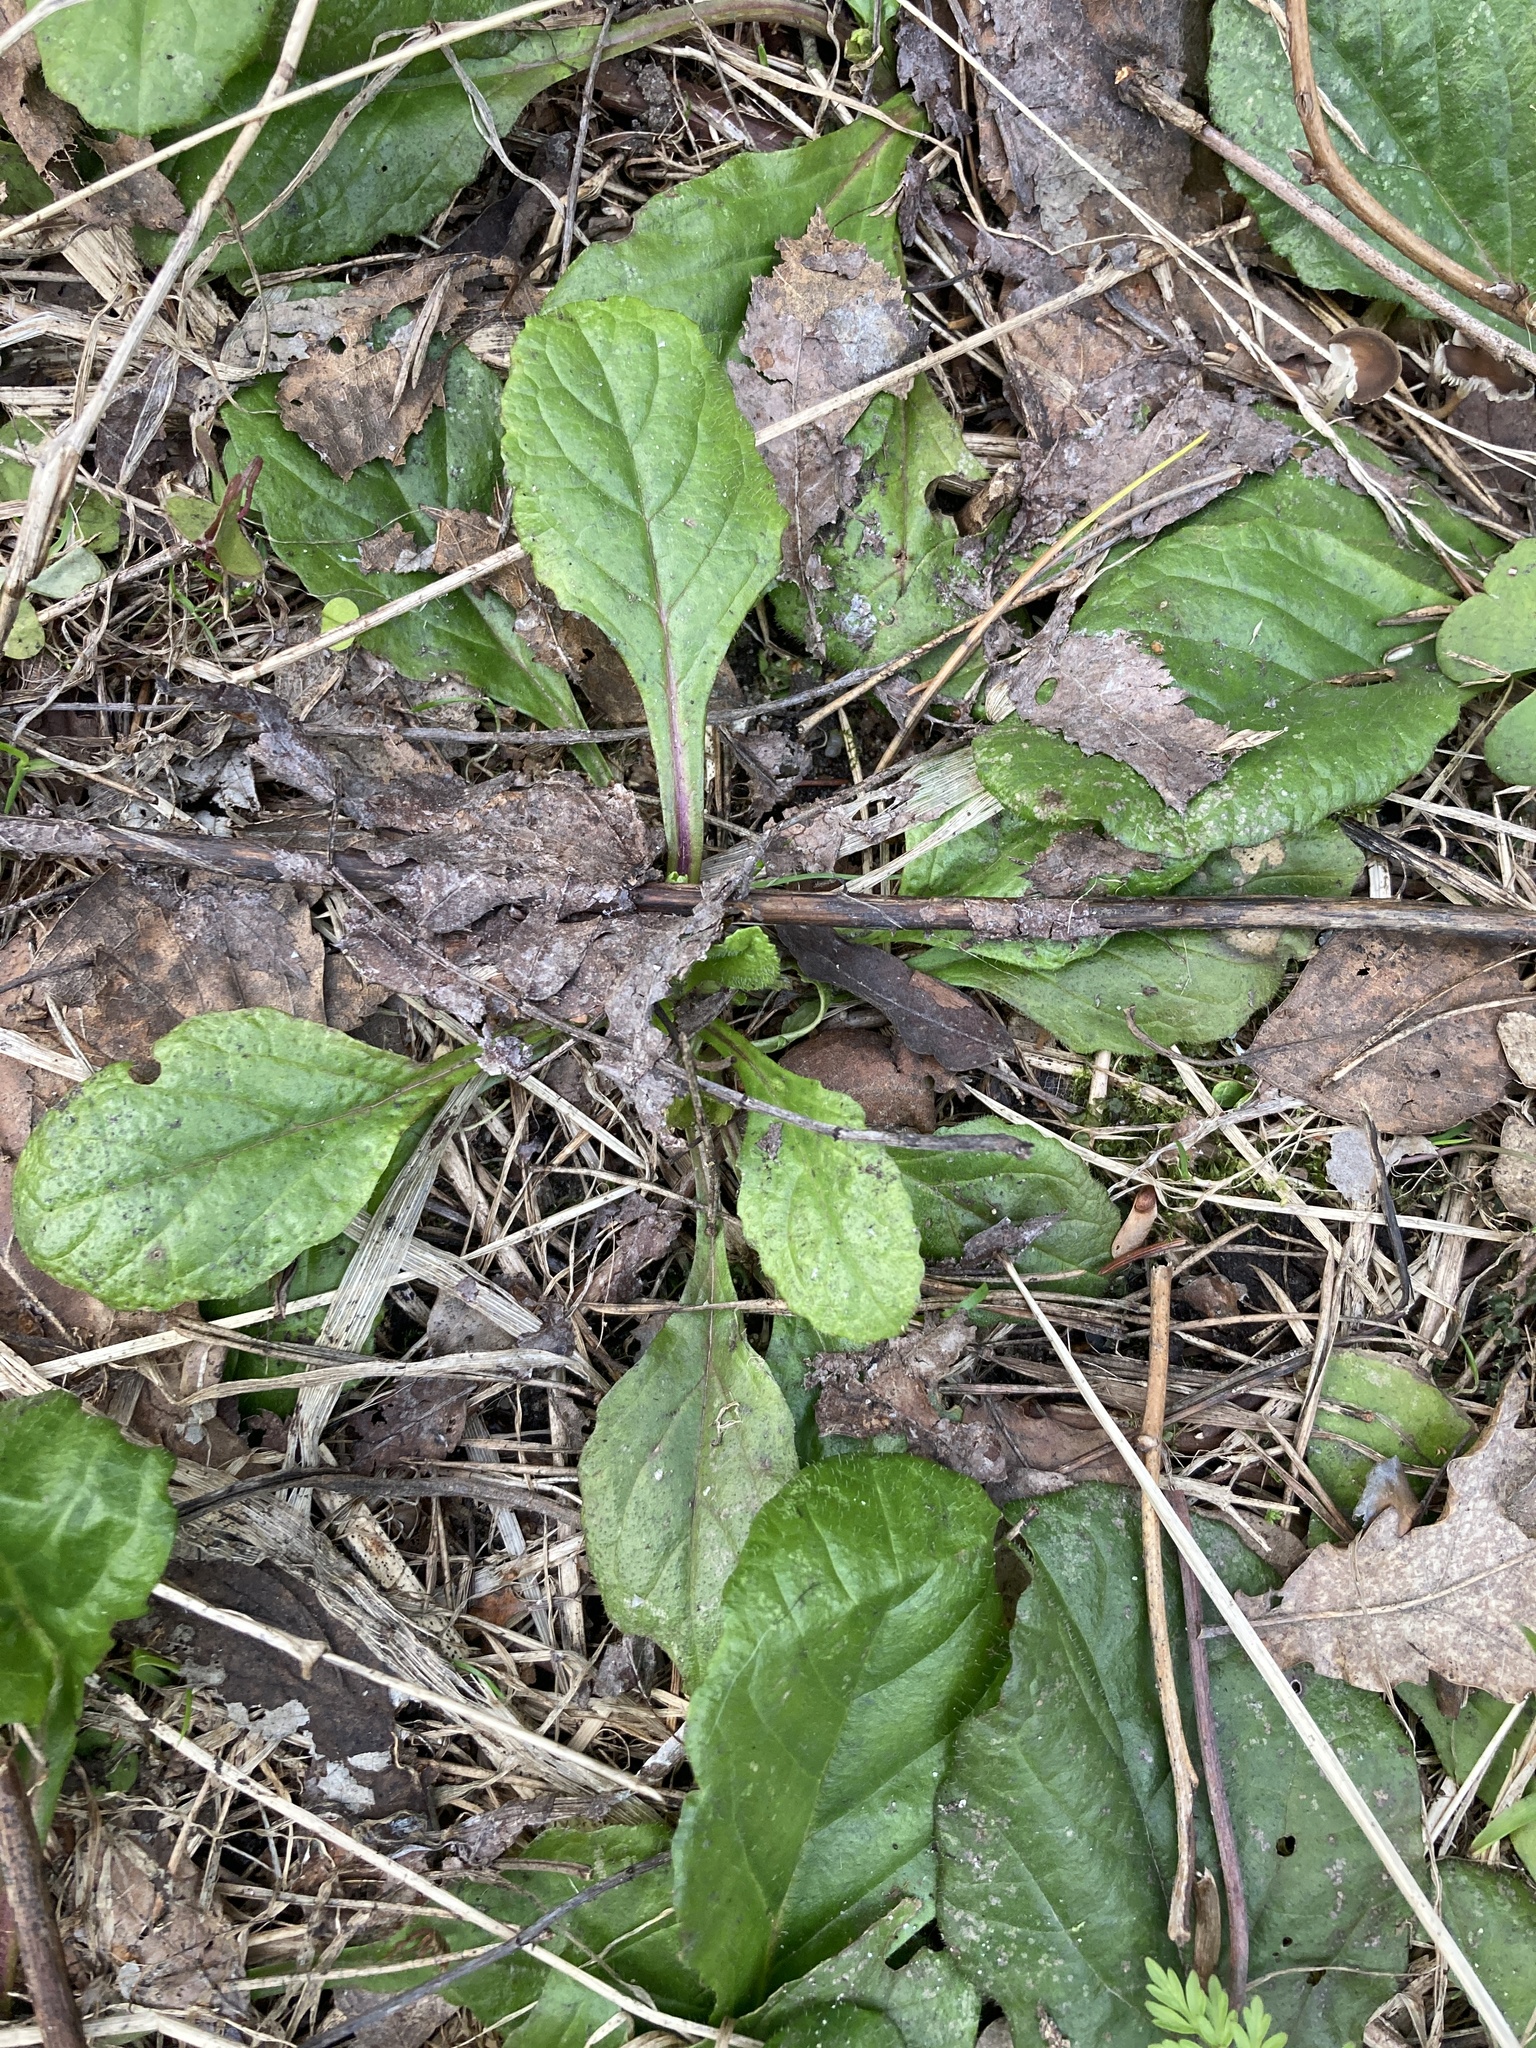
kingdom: Plantae
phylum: Tracheophyta
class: Magnoliopsida
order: Lamiales
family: Lamiaceae
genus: Ajuga
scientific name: Ajuga reptans
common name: Bugle
